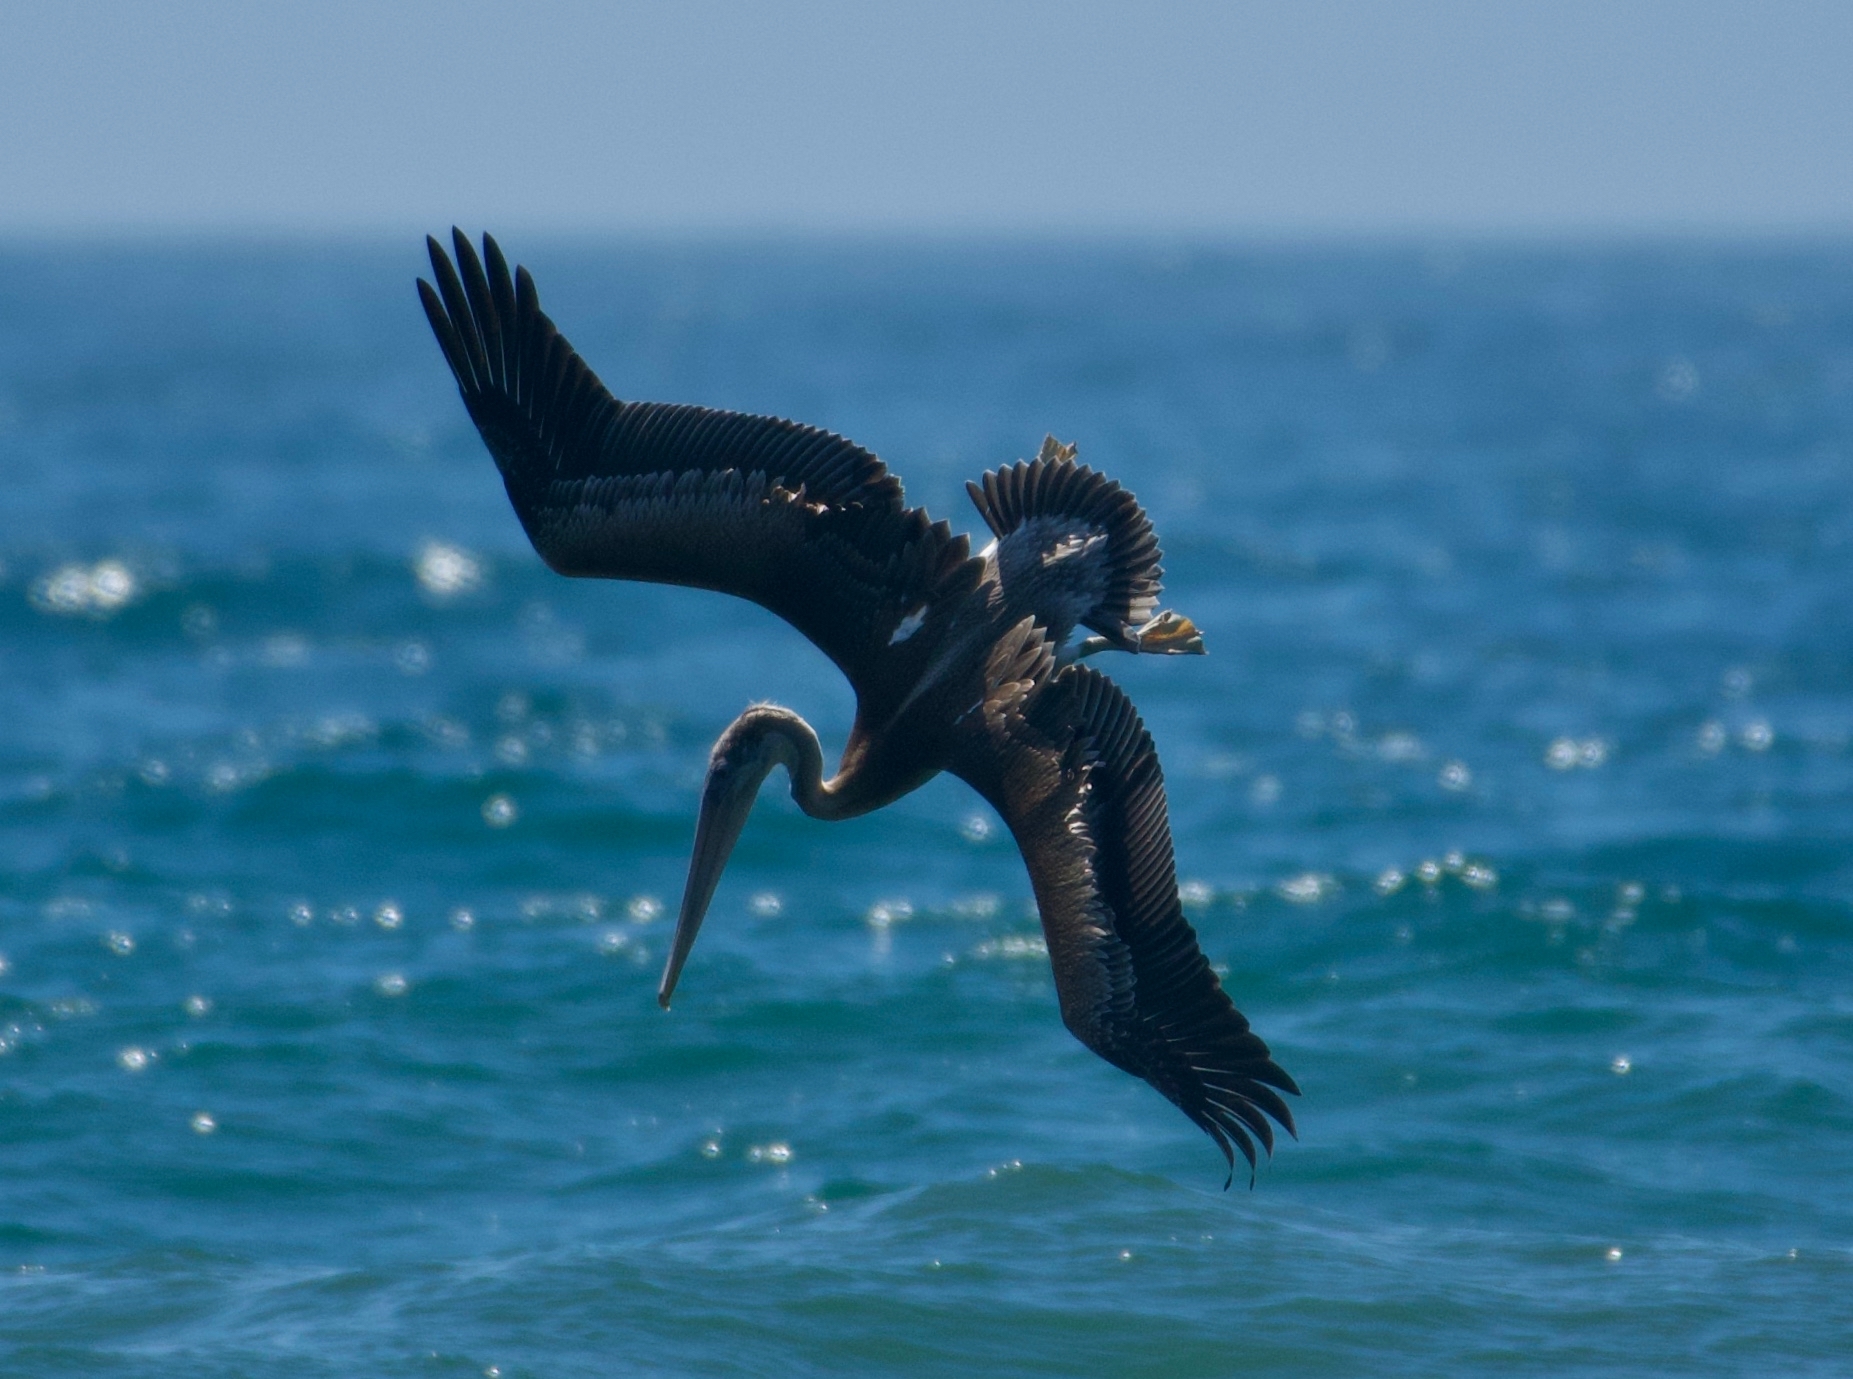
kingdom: Animalia
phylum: Chordata
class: Aves
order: Pelecaniformes
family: Pelecanidae
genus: Pelecanus
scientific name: Pelecanus occidentalis
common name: Brown pelican
